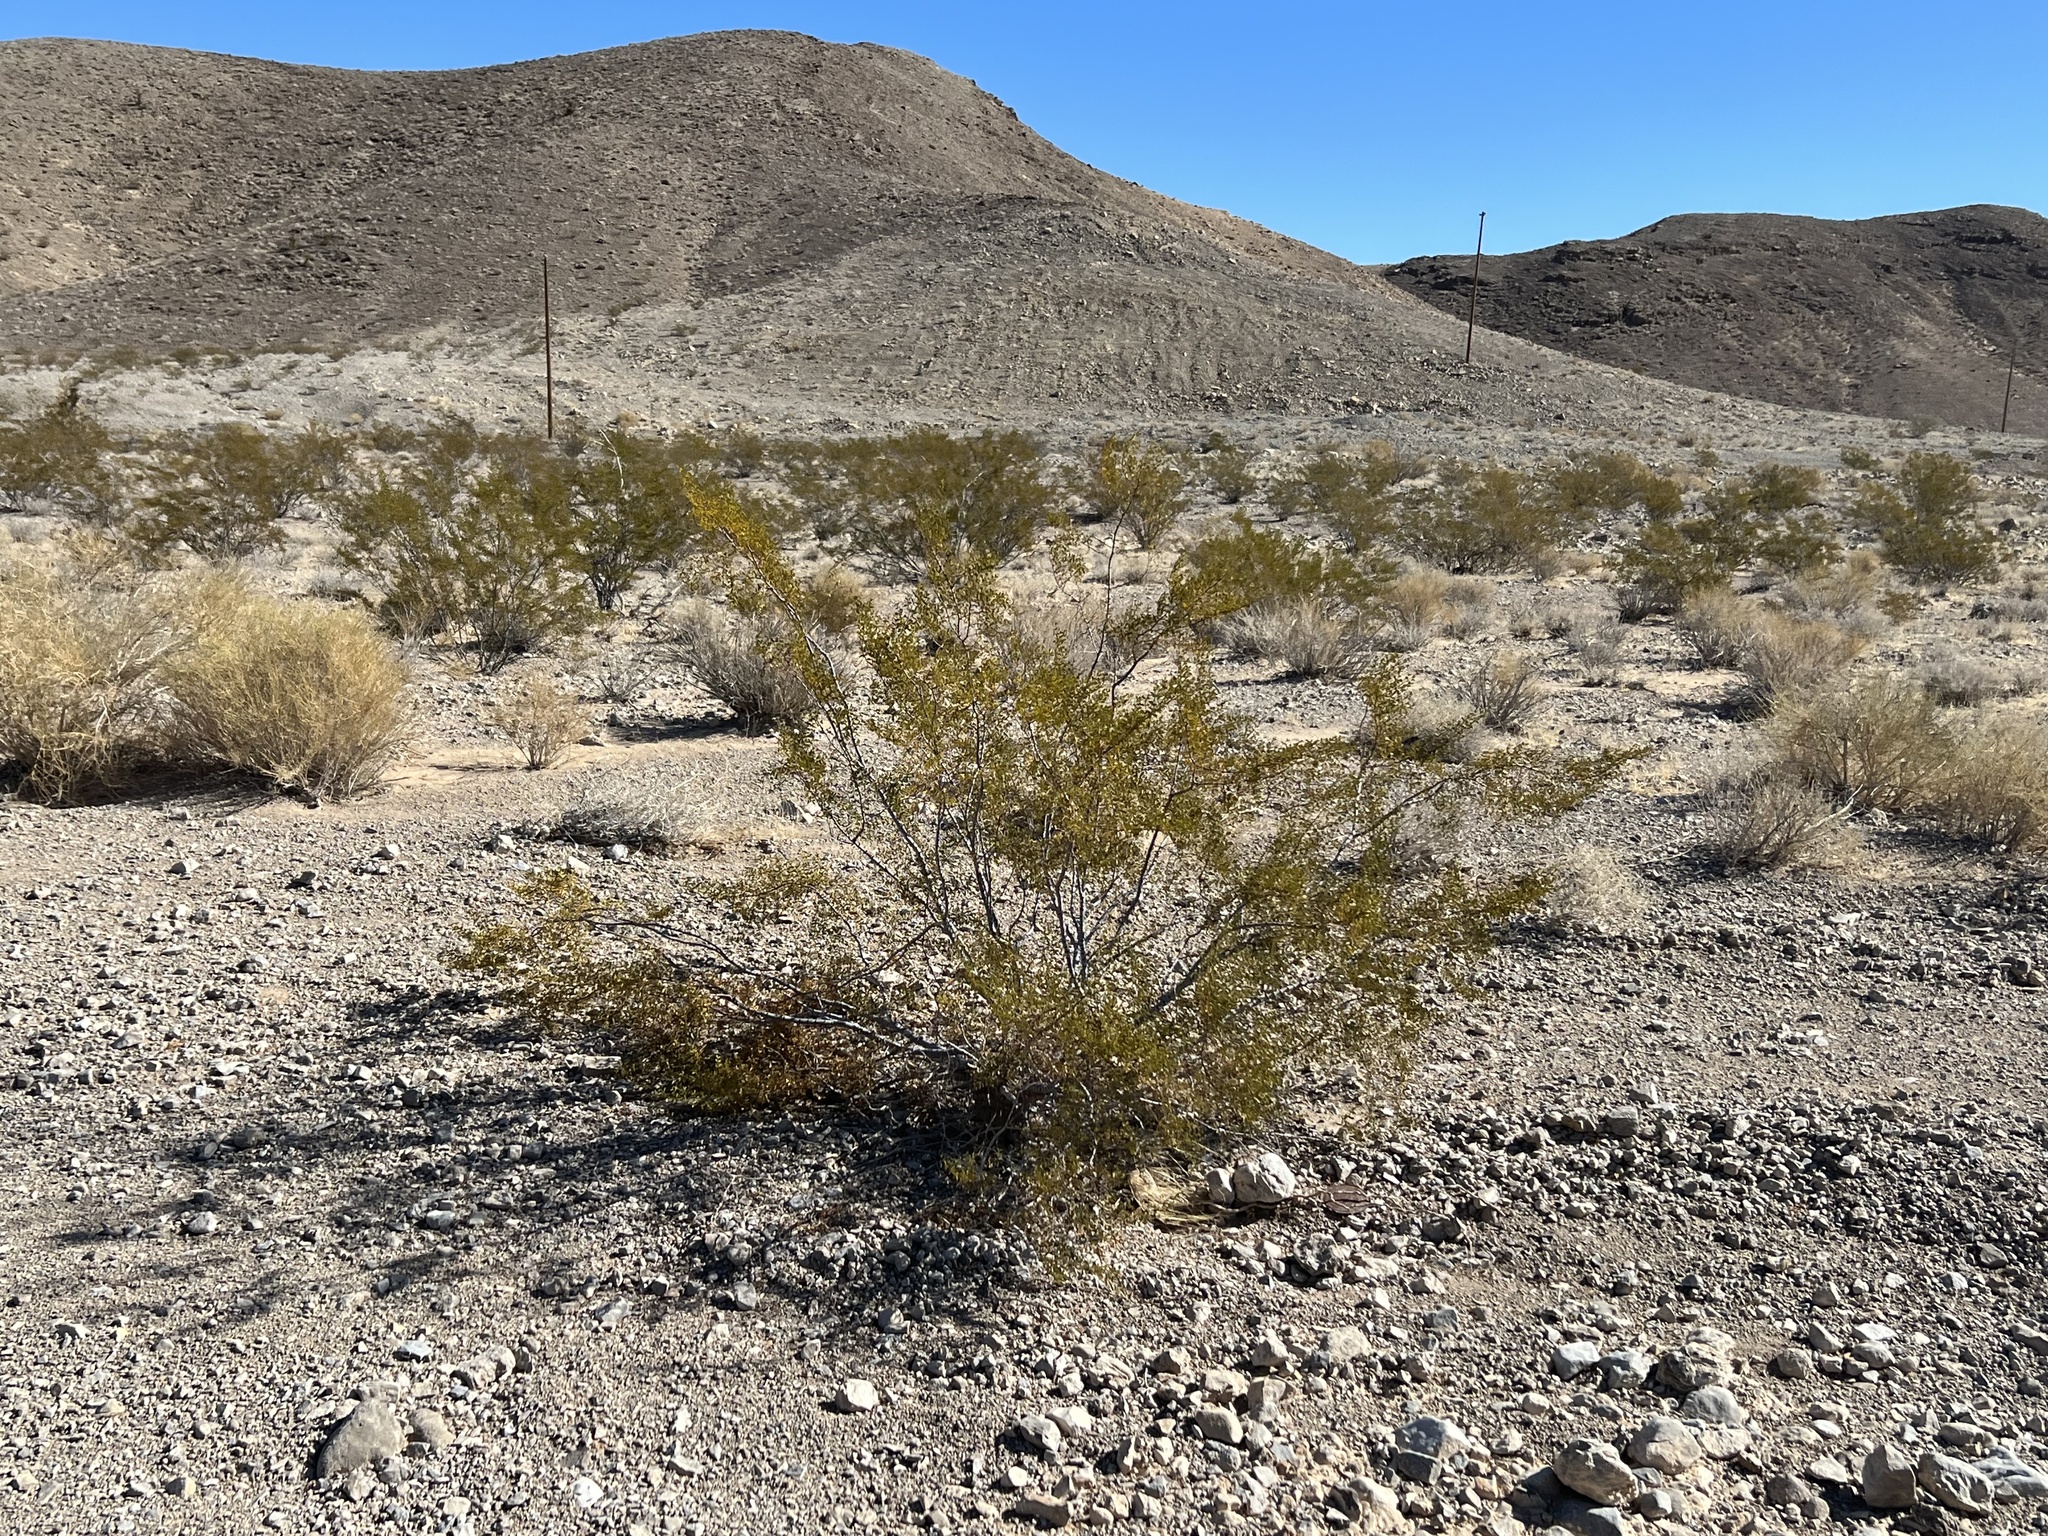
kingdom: Plantae
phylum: Tracheophyta
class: Magnoliopsida
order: Zygophyllales
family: Zygophyllaceae
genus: Larrea
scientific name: Larrea tridentata
